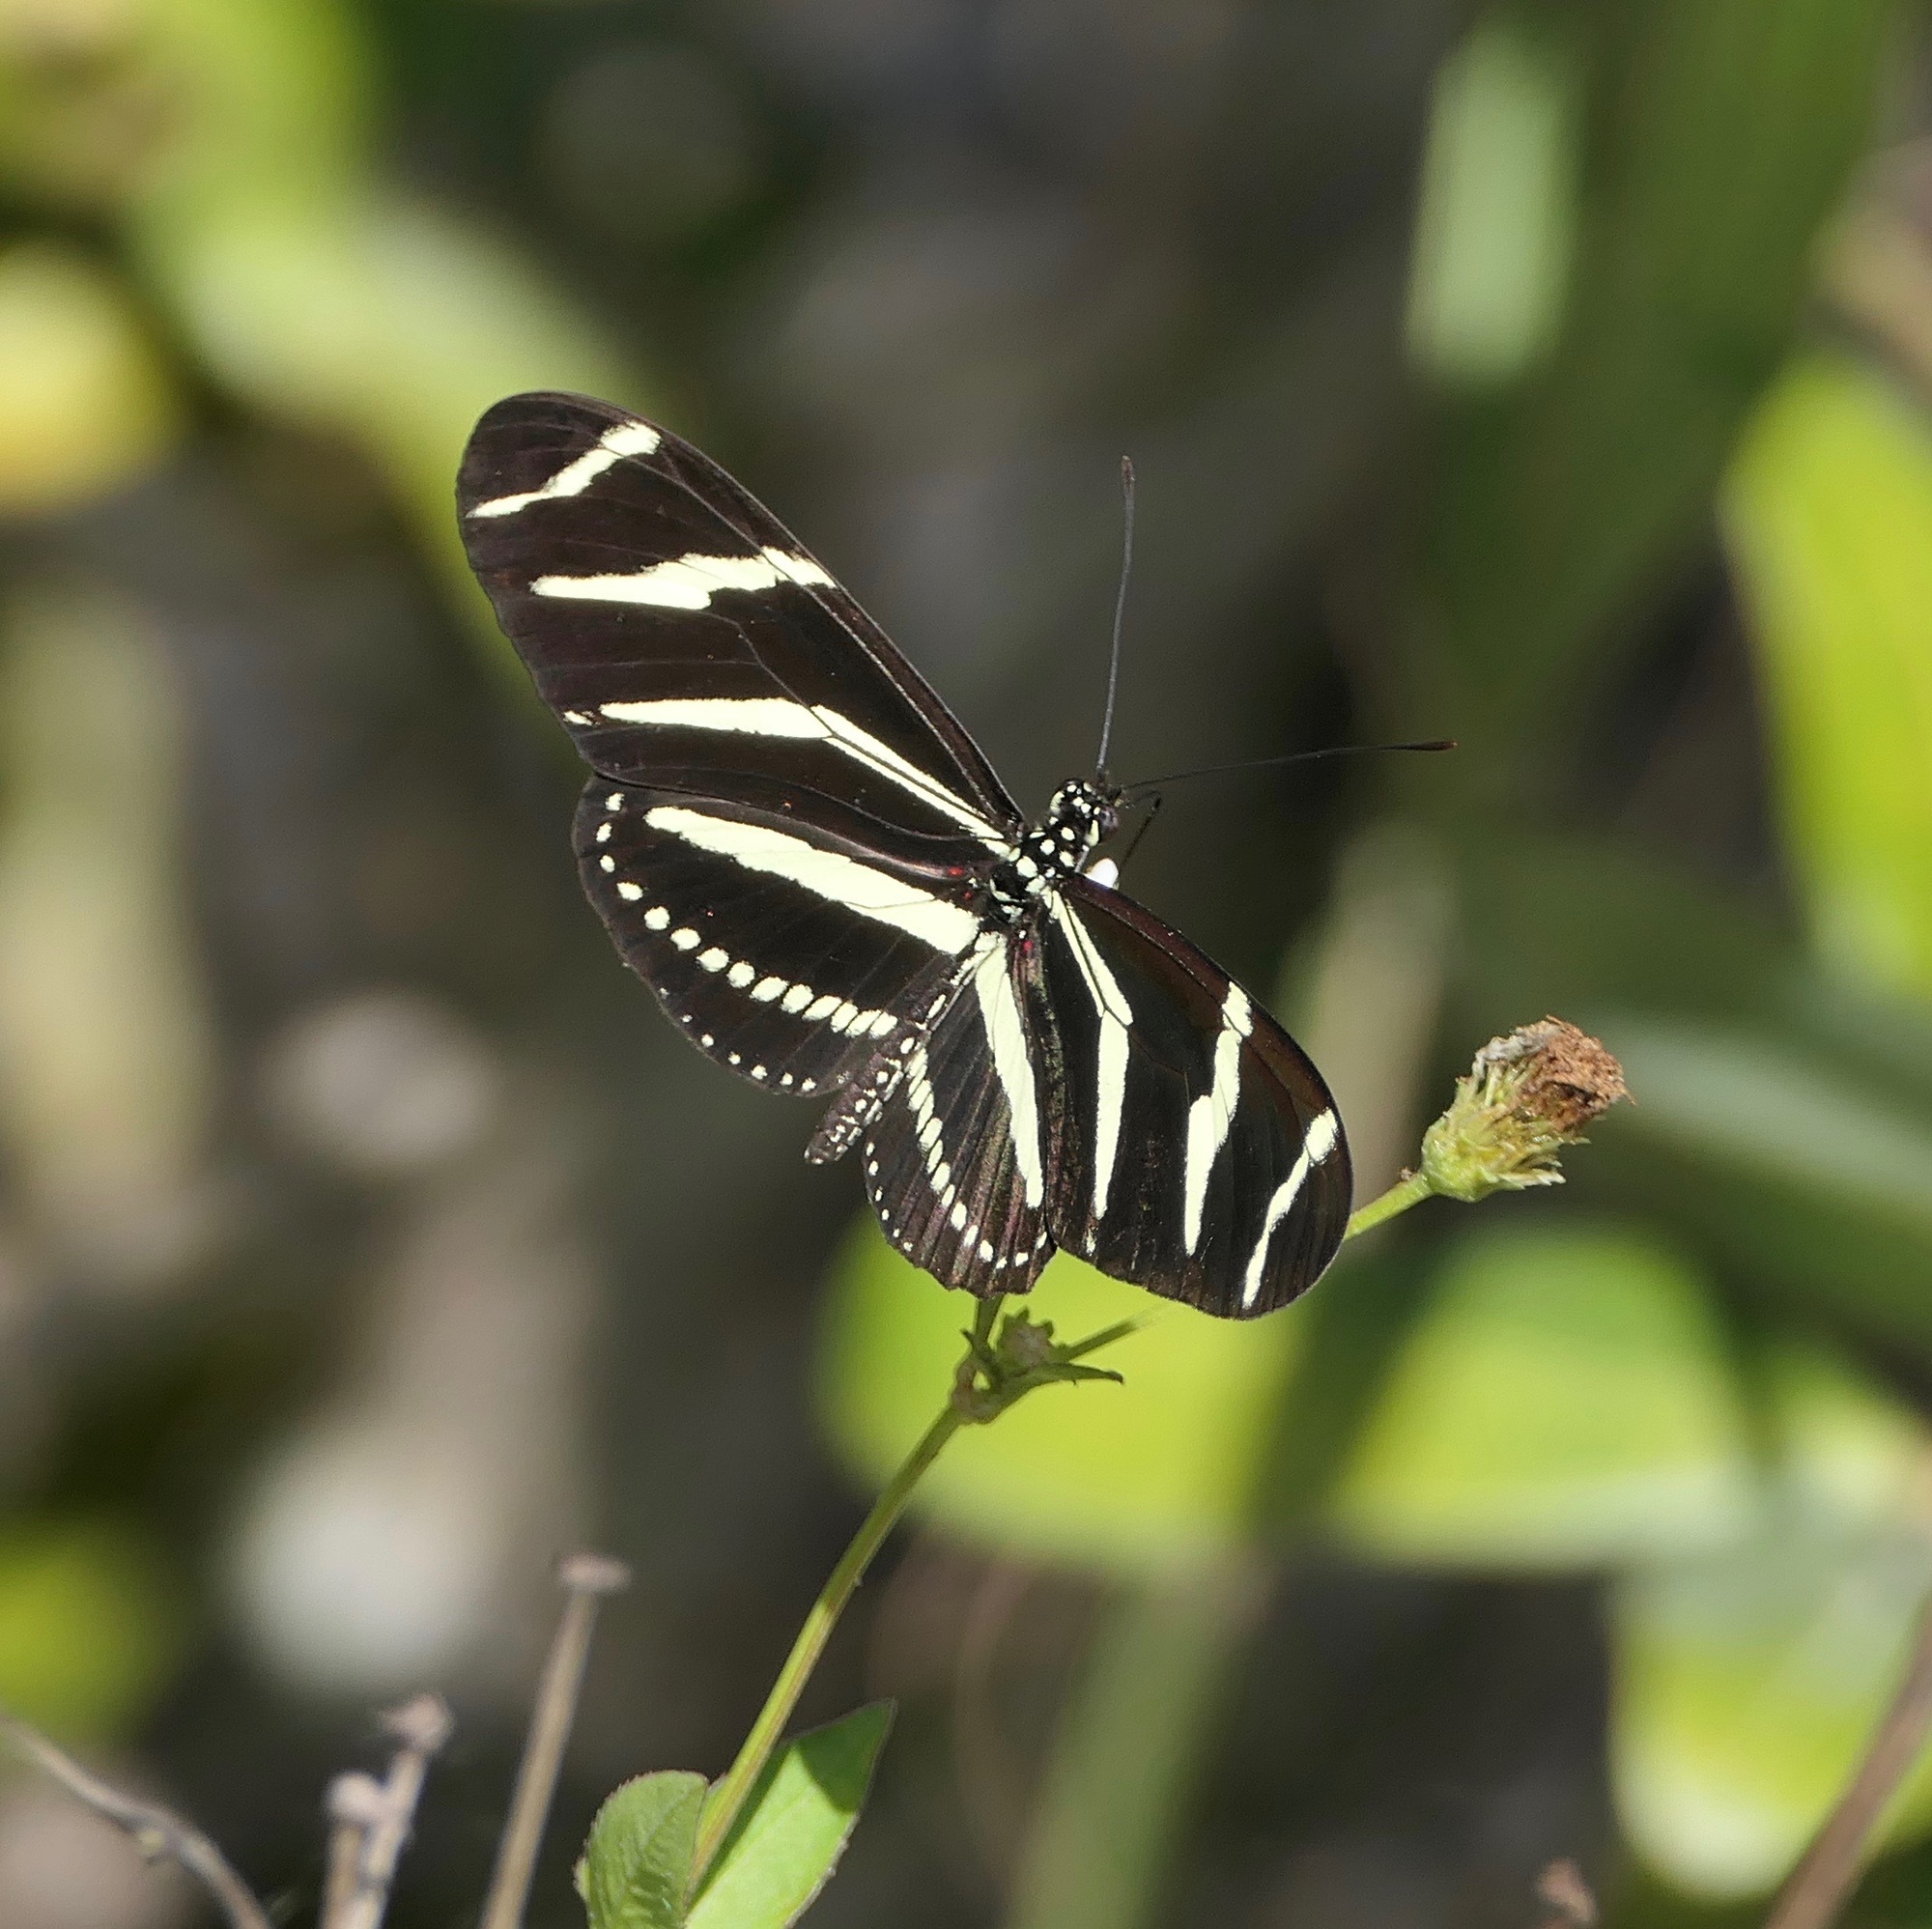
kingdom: Animalia
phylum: Arthropoda
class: Insecta
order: Lepidoptera
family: Nymphalidae
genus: Heliconius
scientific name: Heliconius charithonia
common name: Zebra long wing
